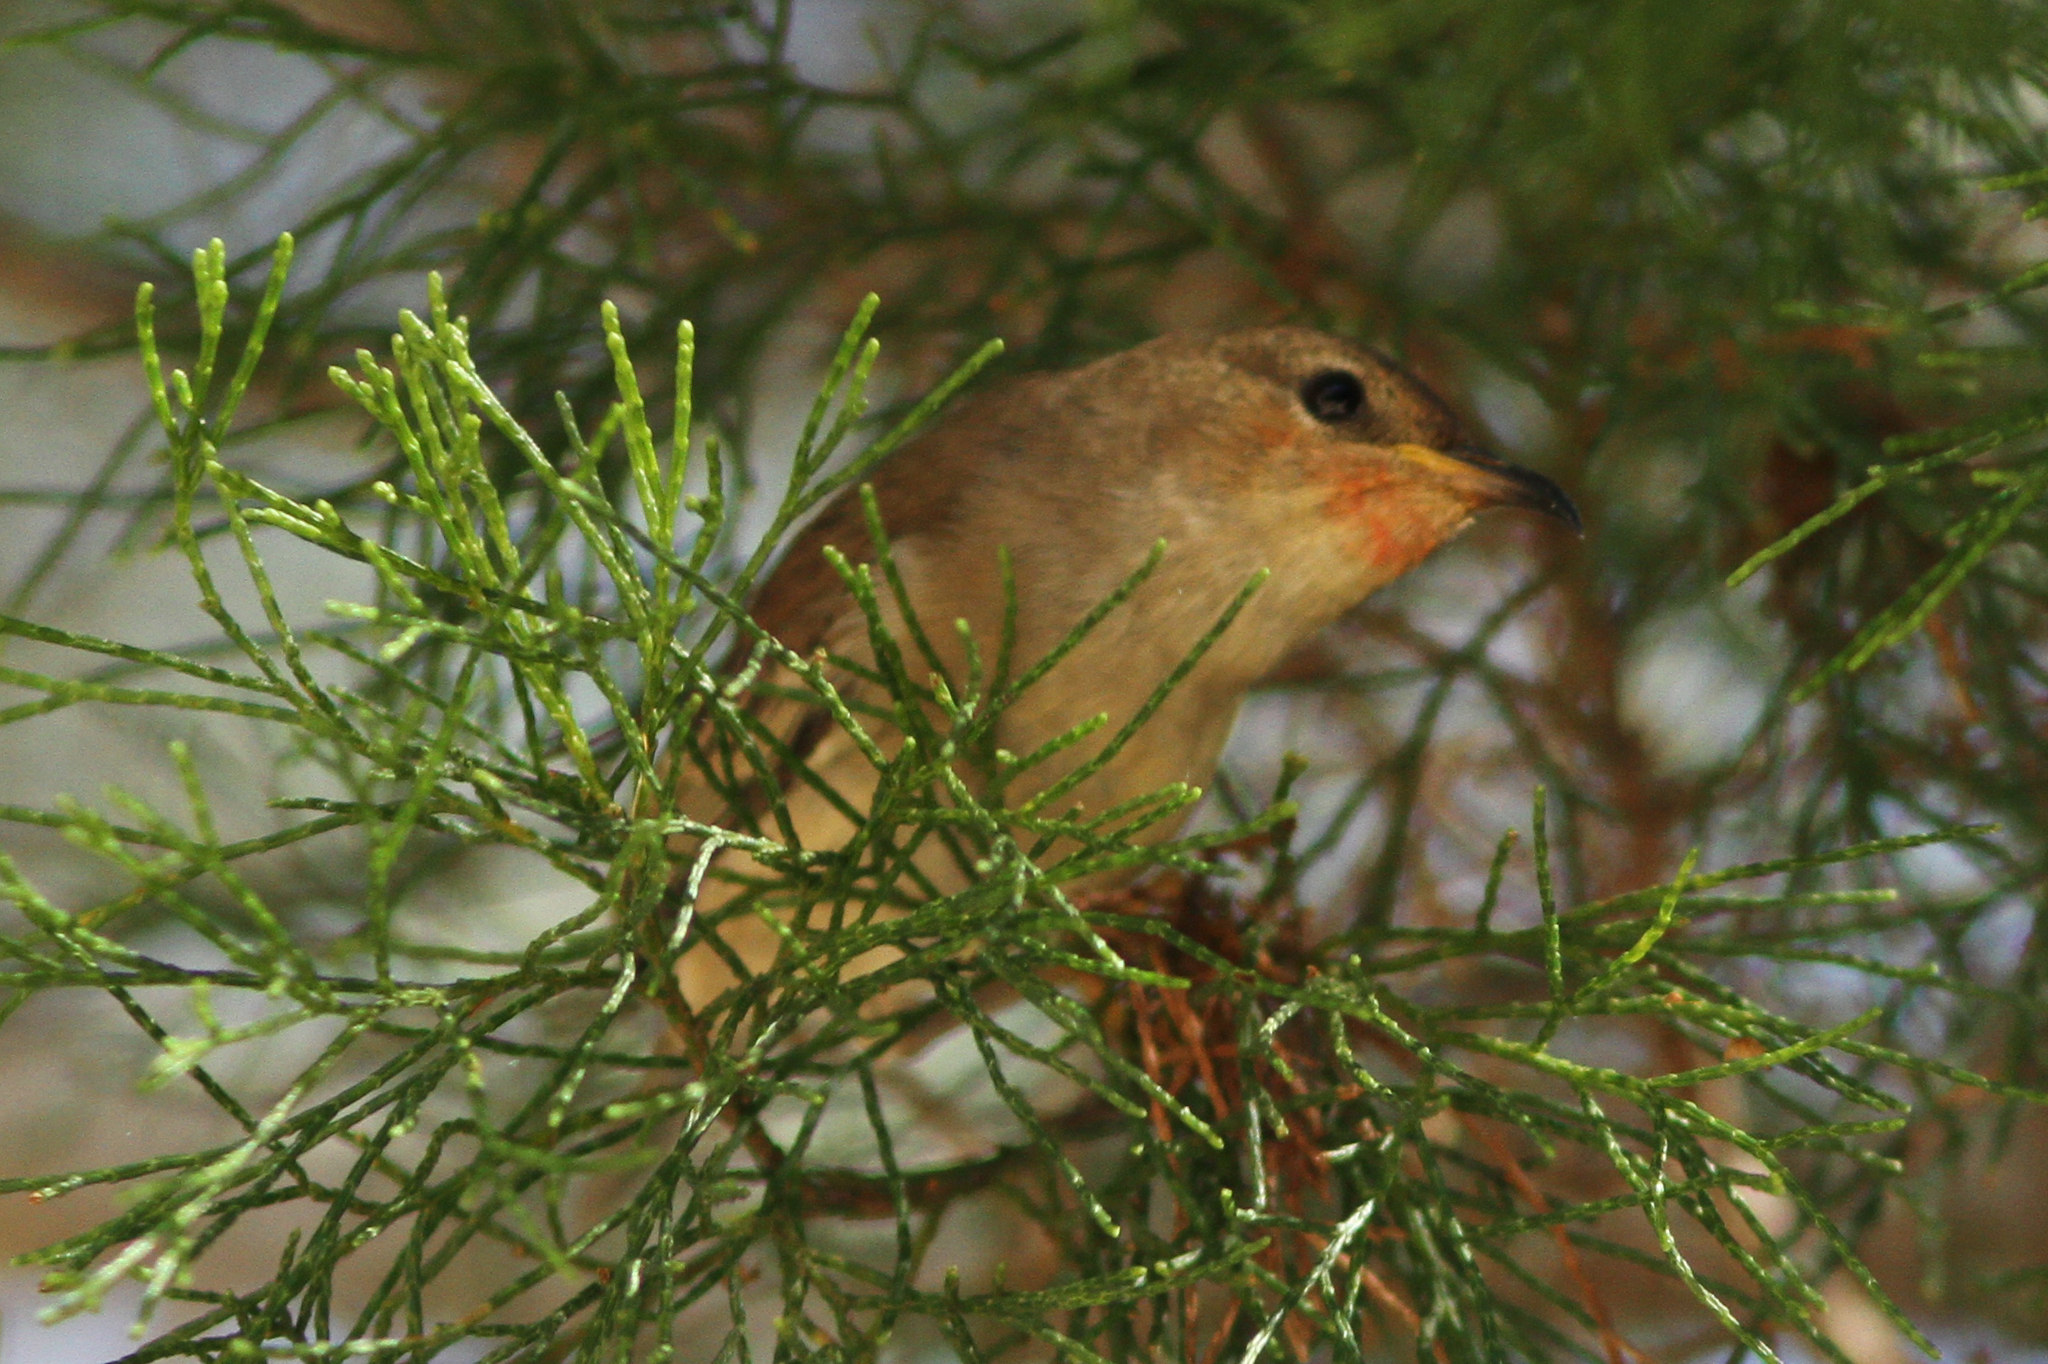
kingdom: Animalia
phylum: Chordata
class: Aves
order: Passeriformes
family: Meliphagidae
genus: Myzomela
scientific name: Myzomela sanguinolenta
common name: Scarlet myzomela
